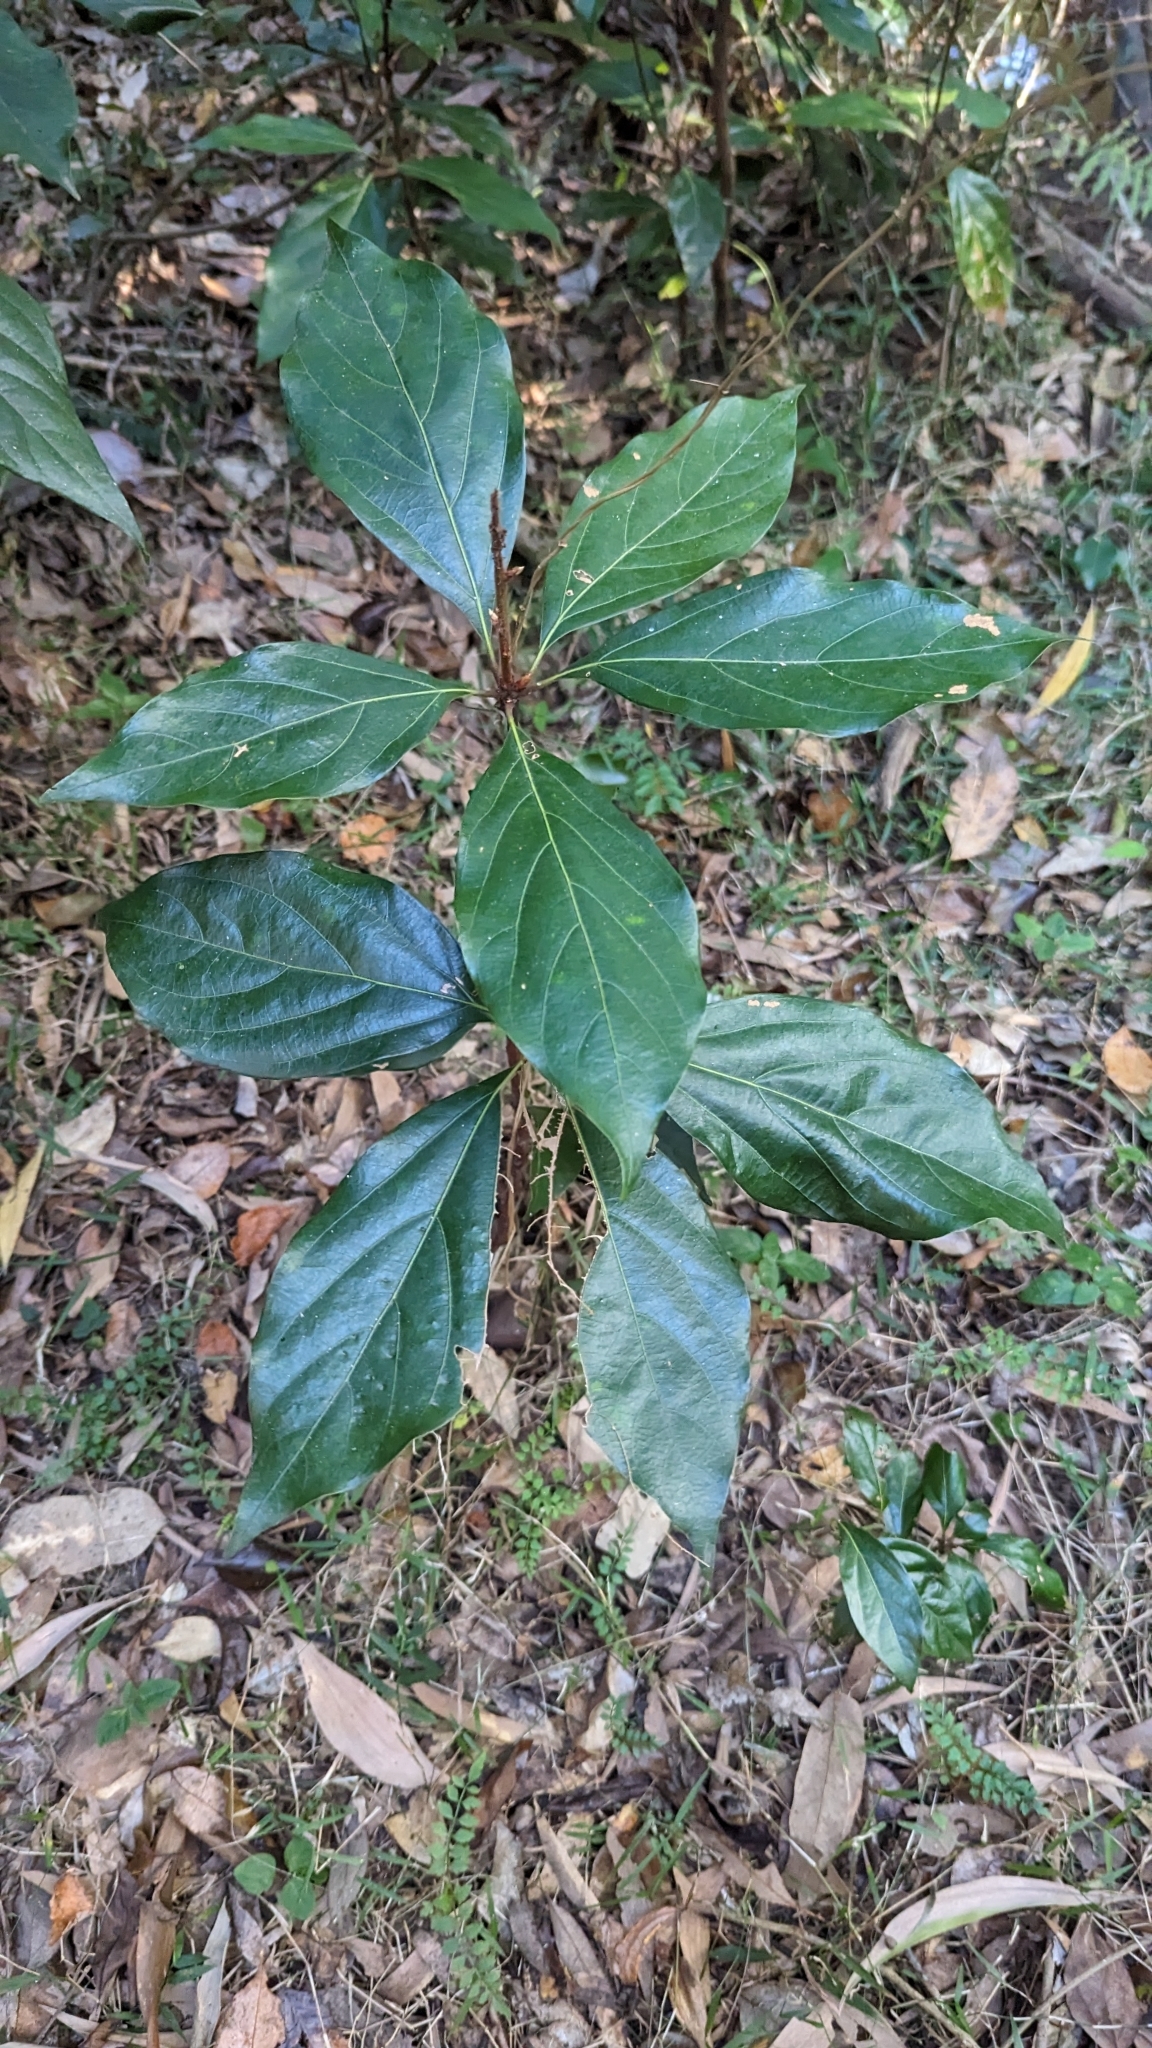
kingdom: Plantae
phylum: Tracheophyta
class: Magnoliopsida
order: Laurales
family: Lauraceae
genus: Neolitsea
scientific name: Neolitsea dealbata
